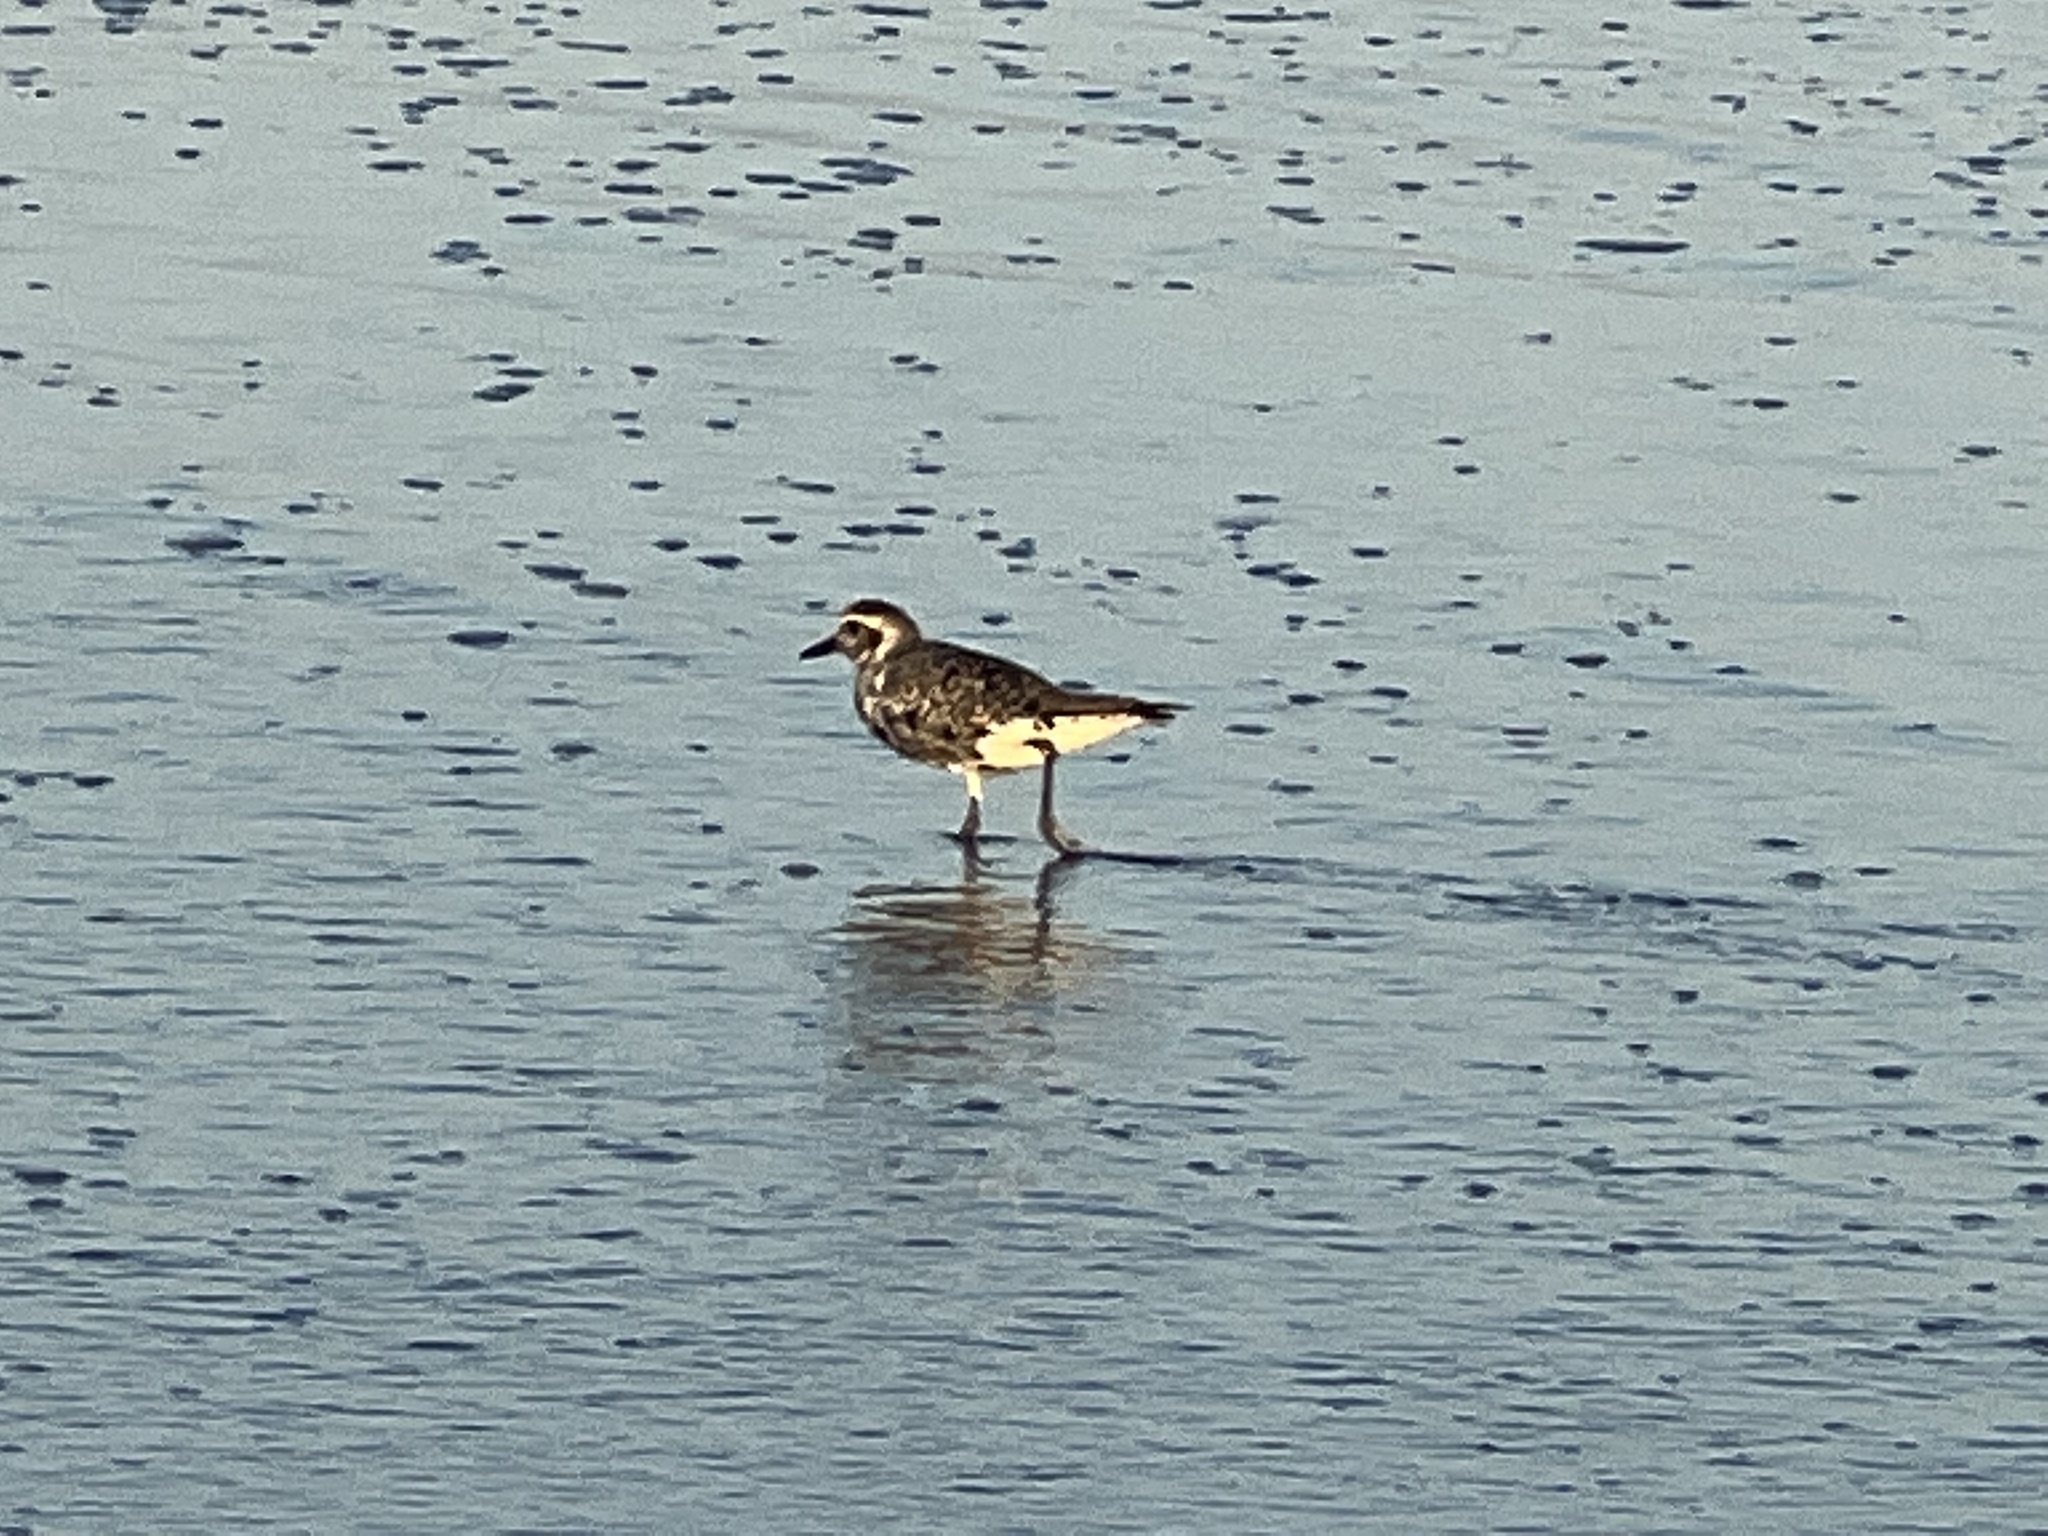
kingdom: Animalia
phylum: Chordata
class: Aves
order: Charadriiformes
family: Charadriidae
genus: Pluvialis
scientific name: Pluvialis squatarola
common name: Grey plover
